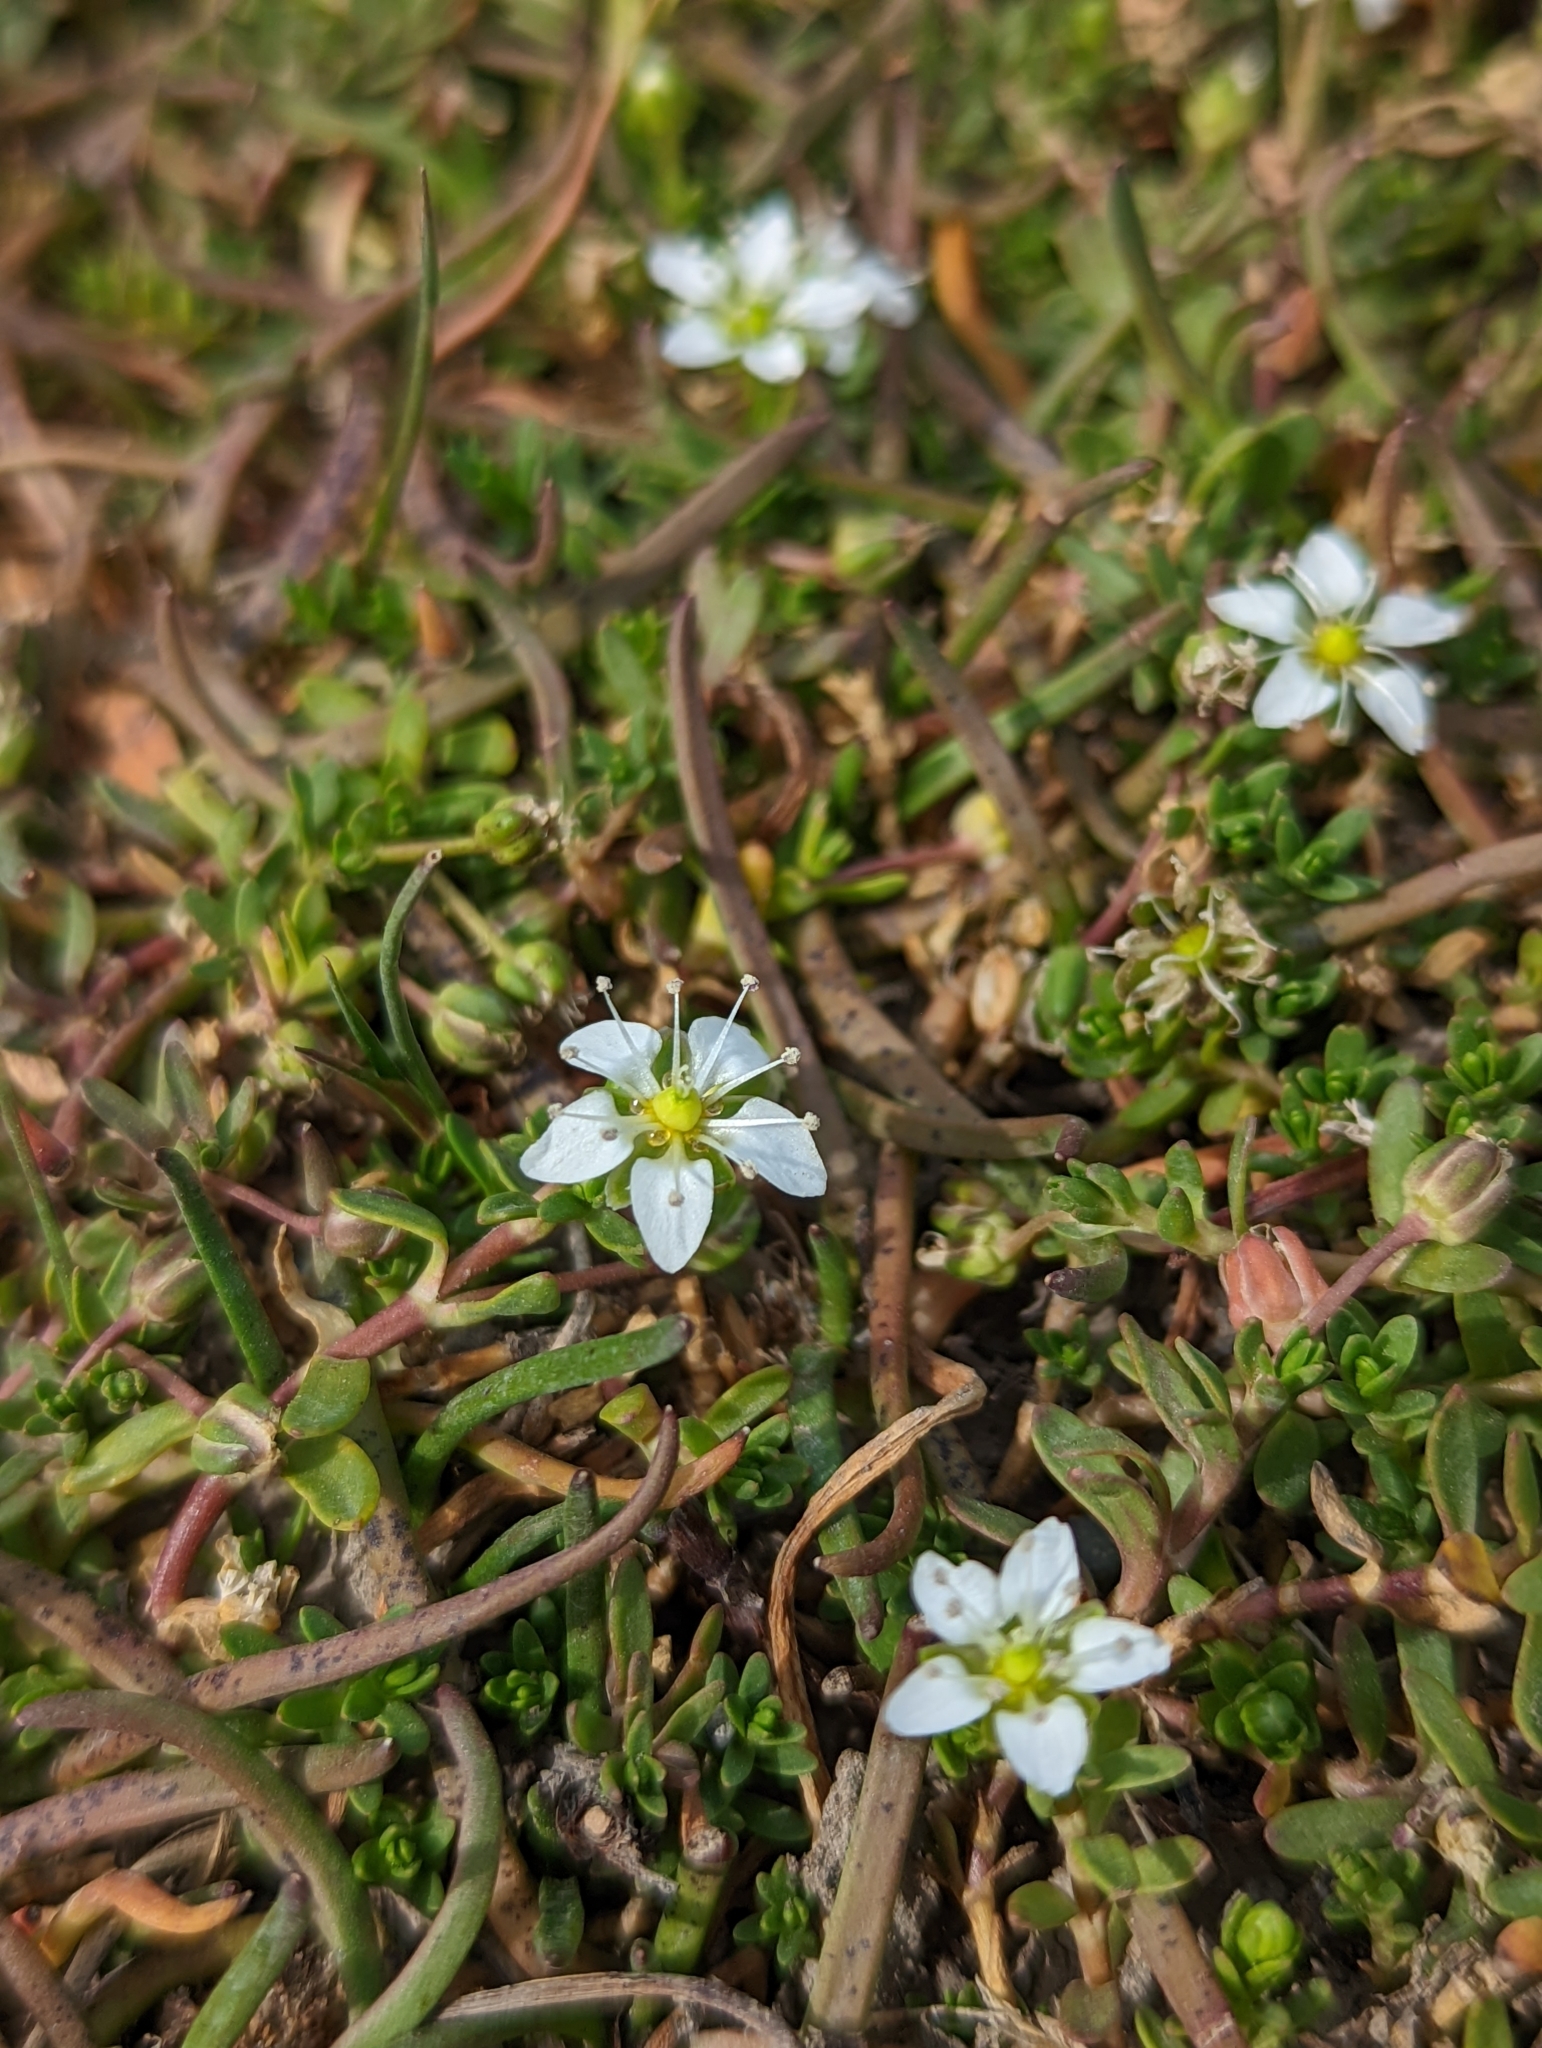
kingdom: Plantae
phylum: Tracheophyta
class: Magnoliopsida
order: Caryophyllales
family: Caryophyllaceae
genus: Arenaria
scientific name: Arenaria serpens
